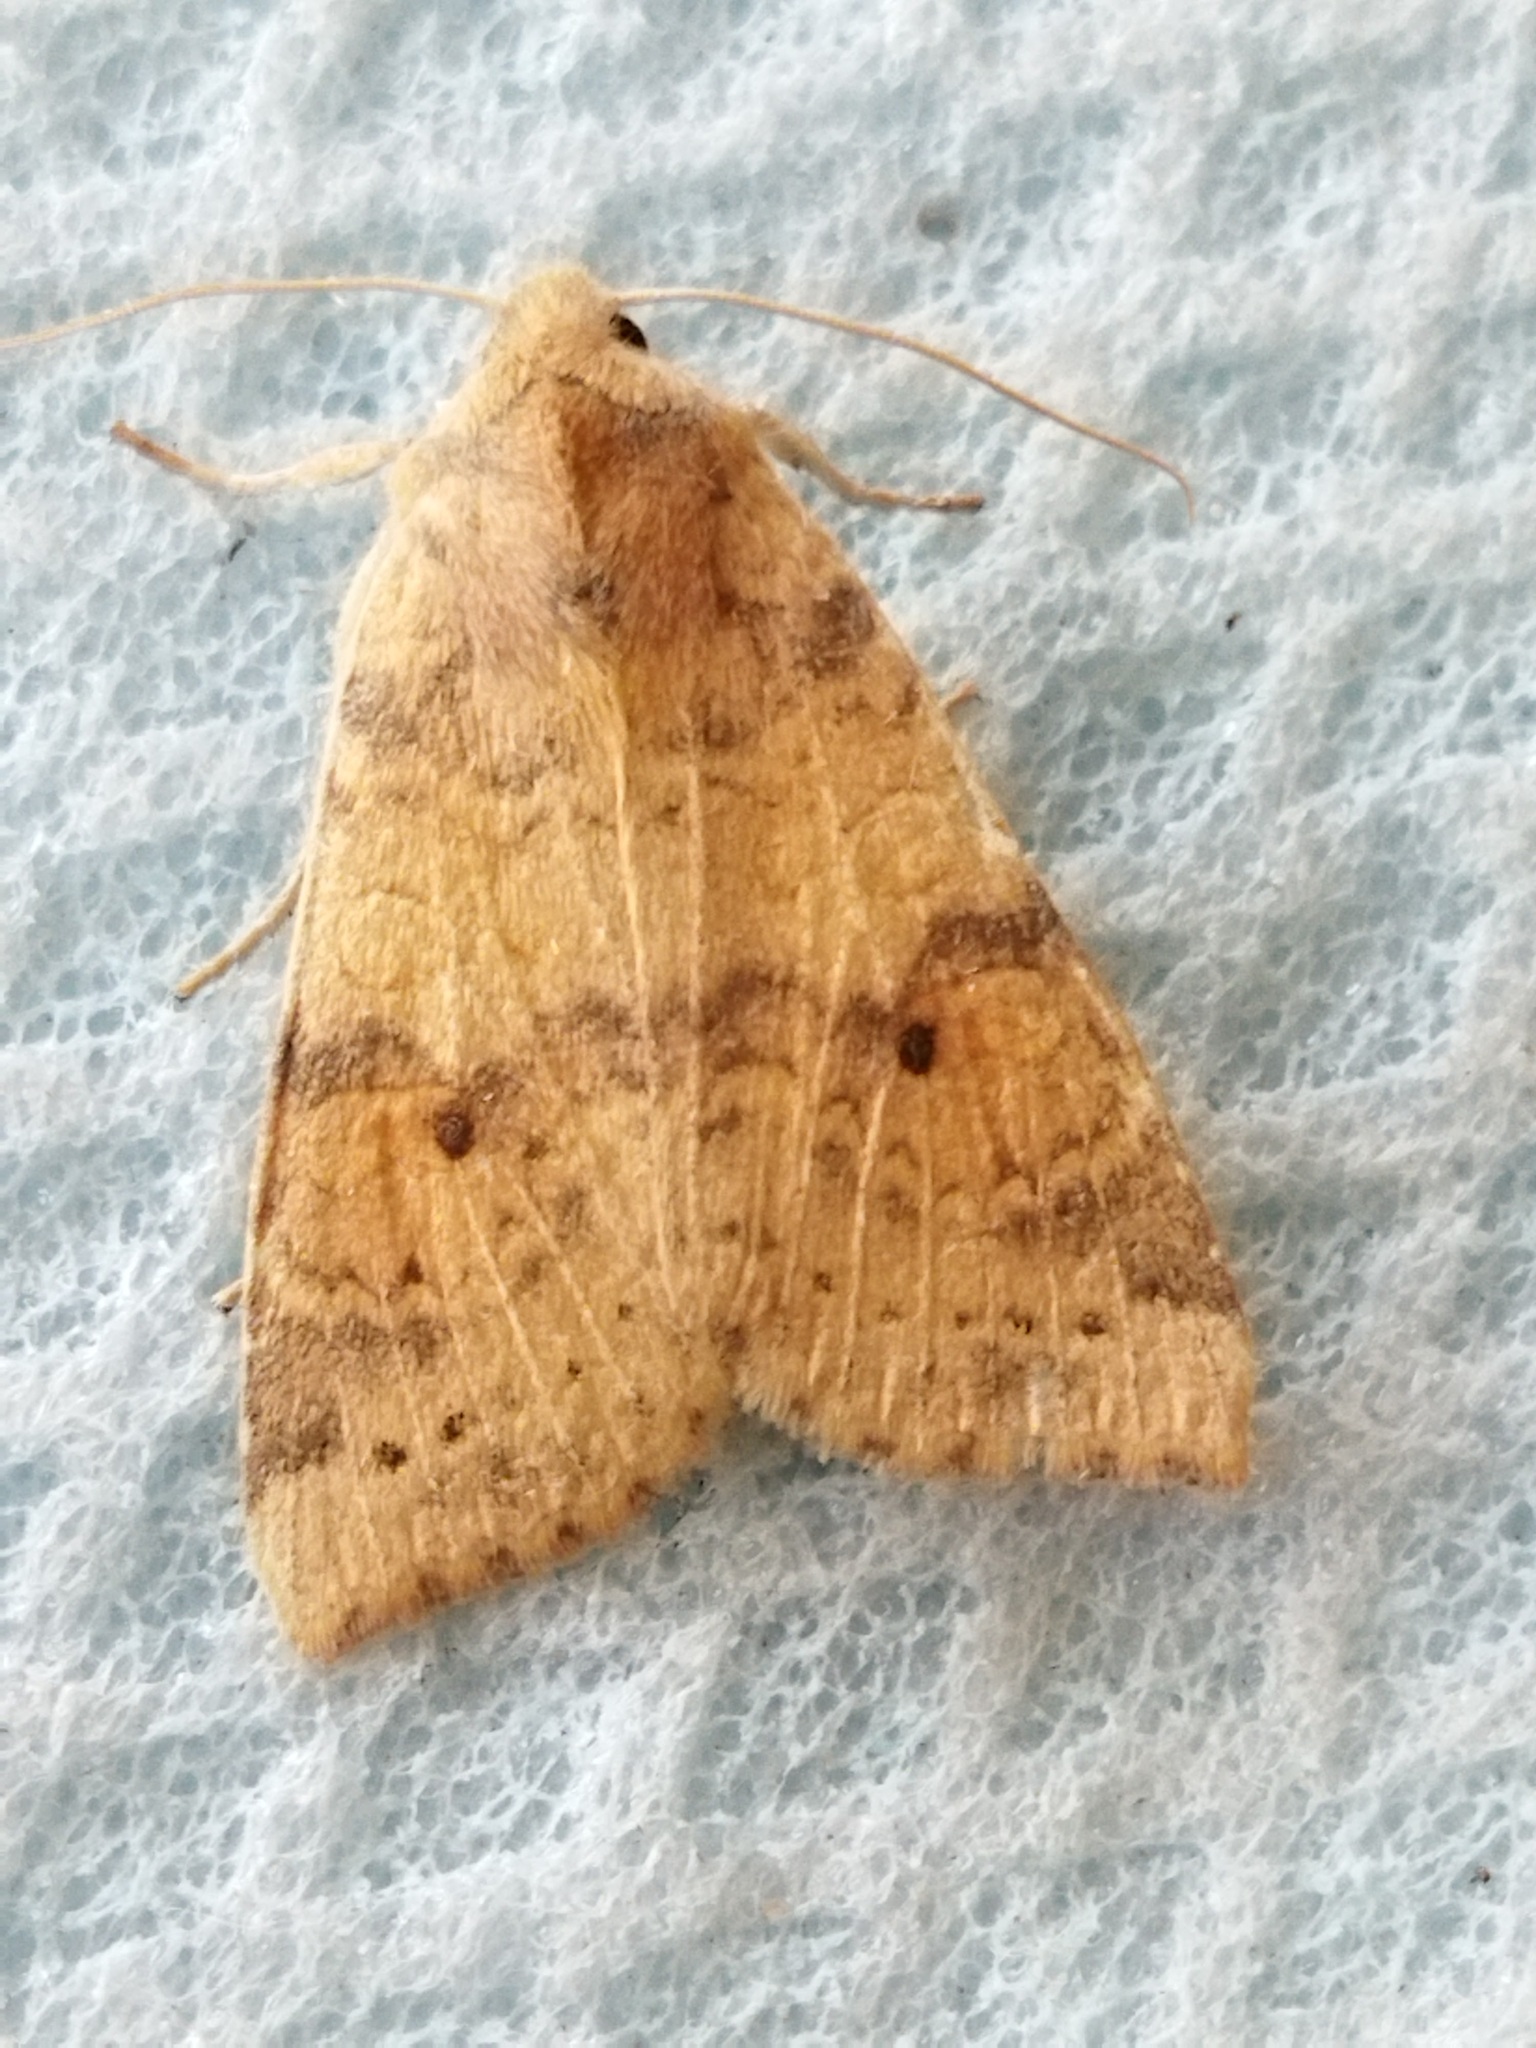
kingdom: Animalia
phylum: Arthropoda
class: Insecta
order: Lepidoptera
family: Noctuidae
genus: Xanthia
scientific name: Xanthia ocellaris
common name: Pale-lemon sallow
